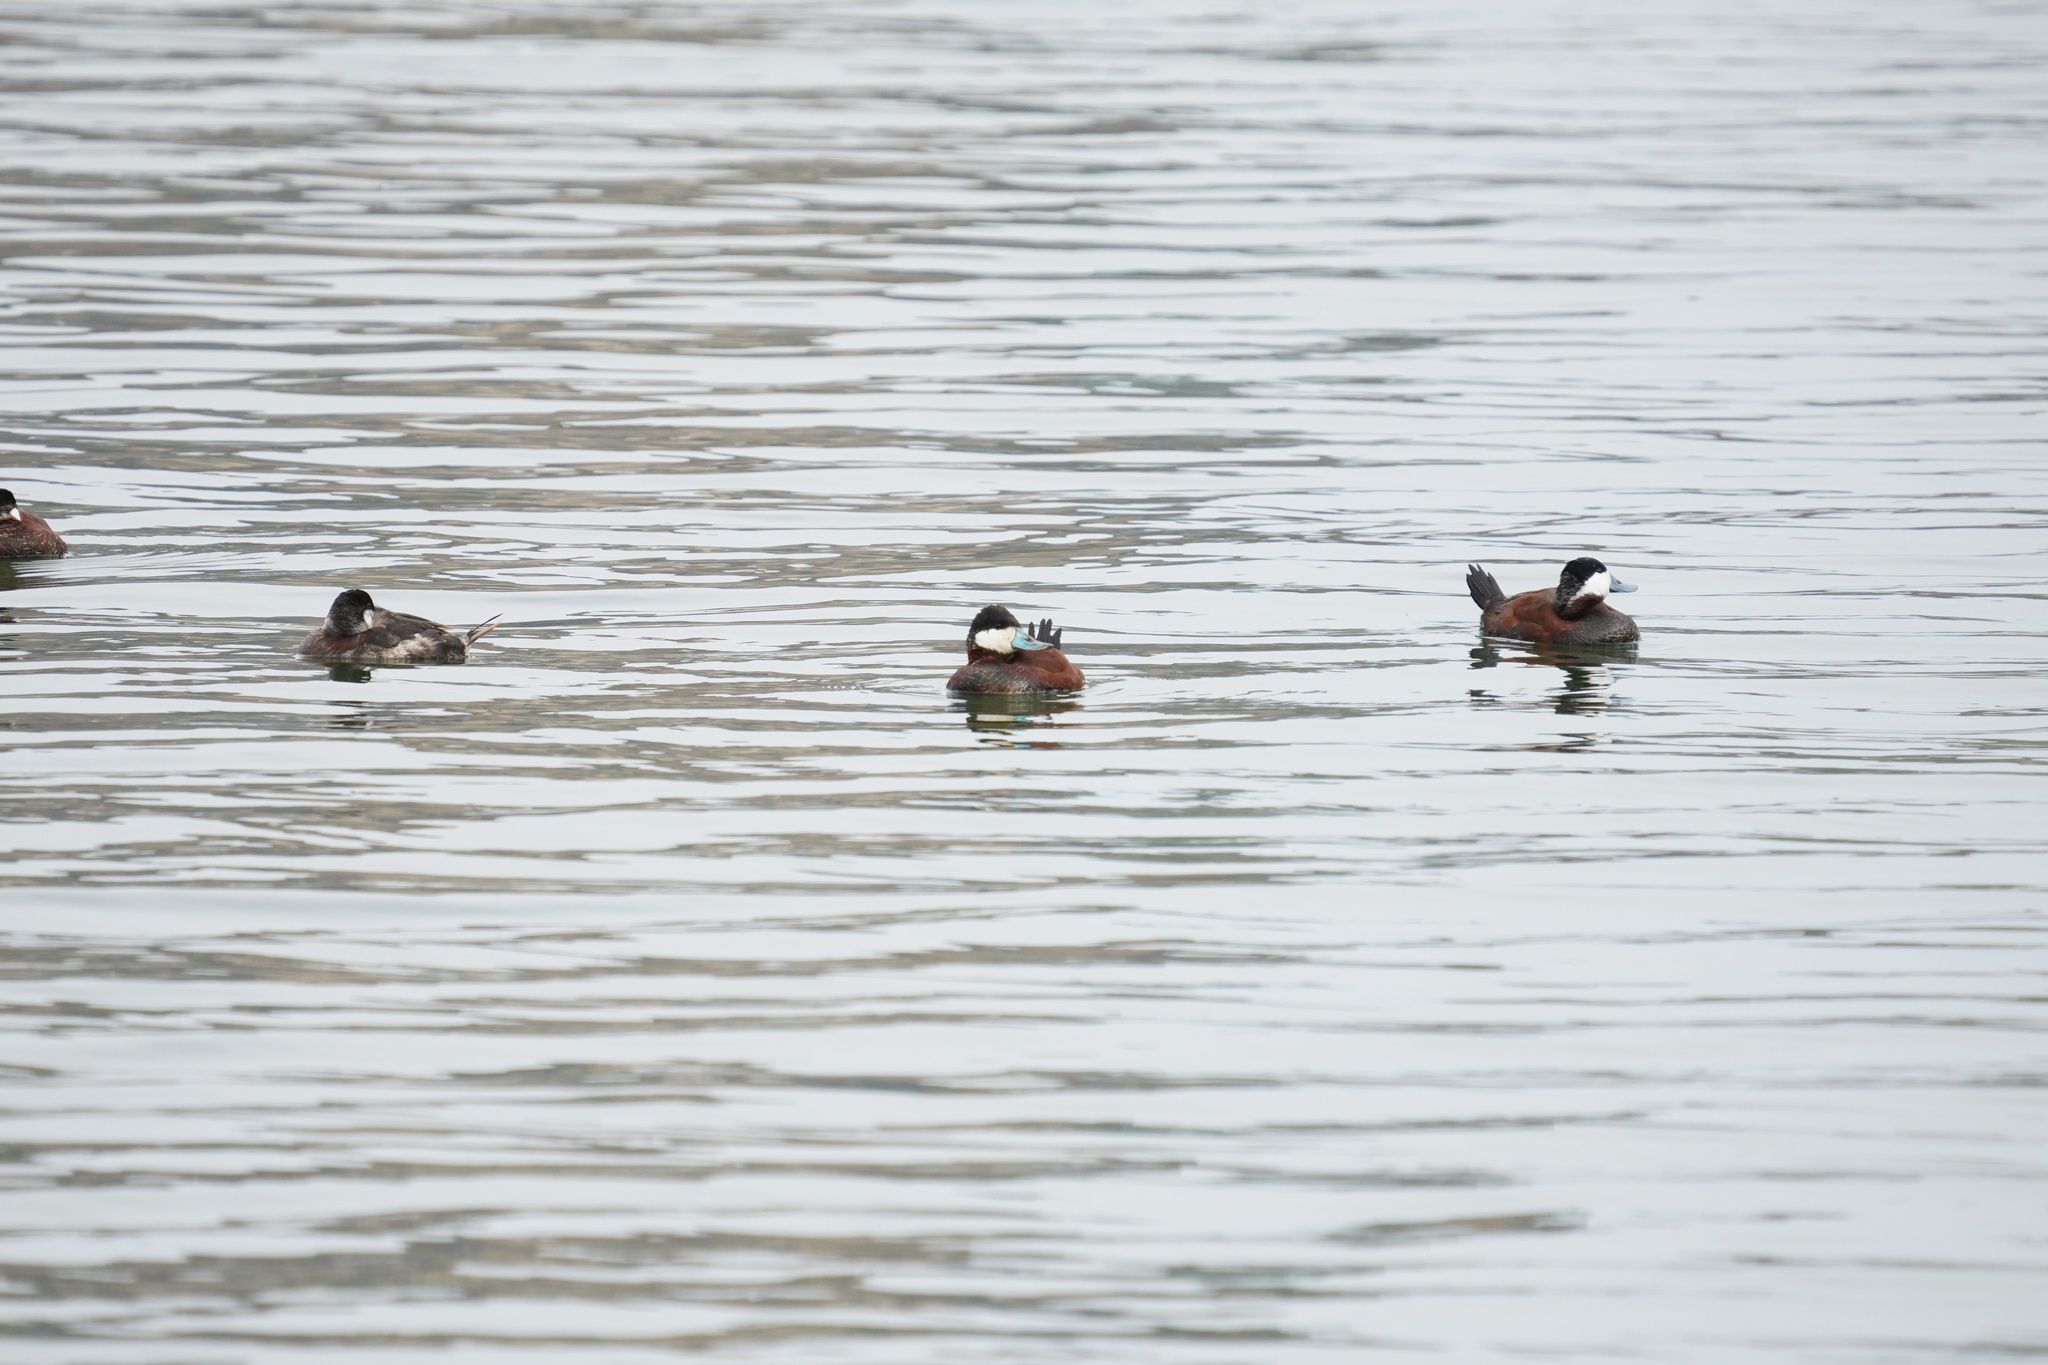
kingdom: Animalia
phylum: Chordata
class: Aves
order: Anseriformes
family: Anatidae
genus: Oxyura
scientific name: Oxyura jamaicensis
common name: Ruddy duck
